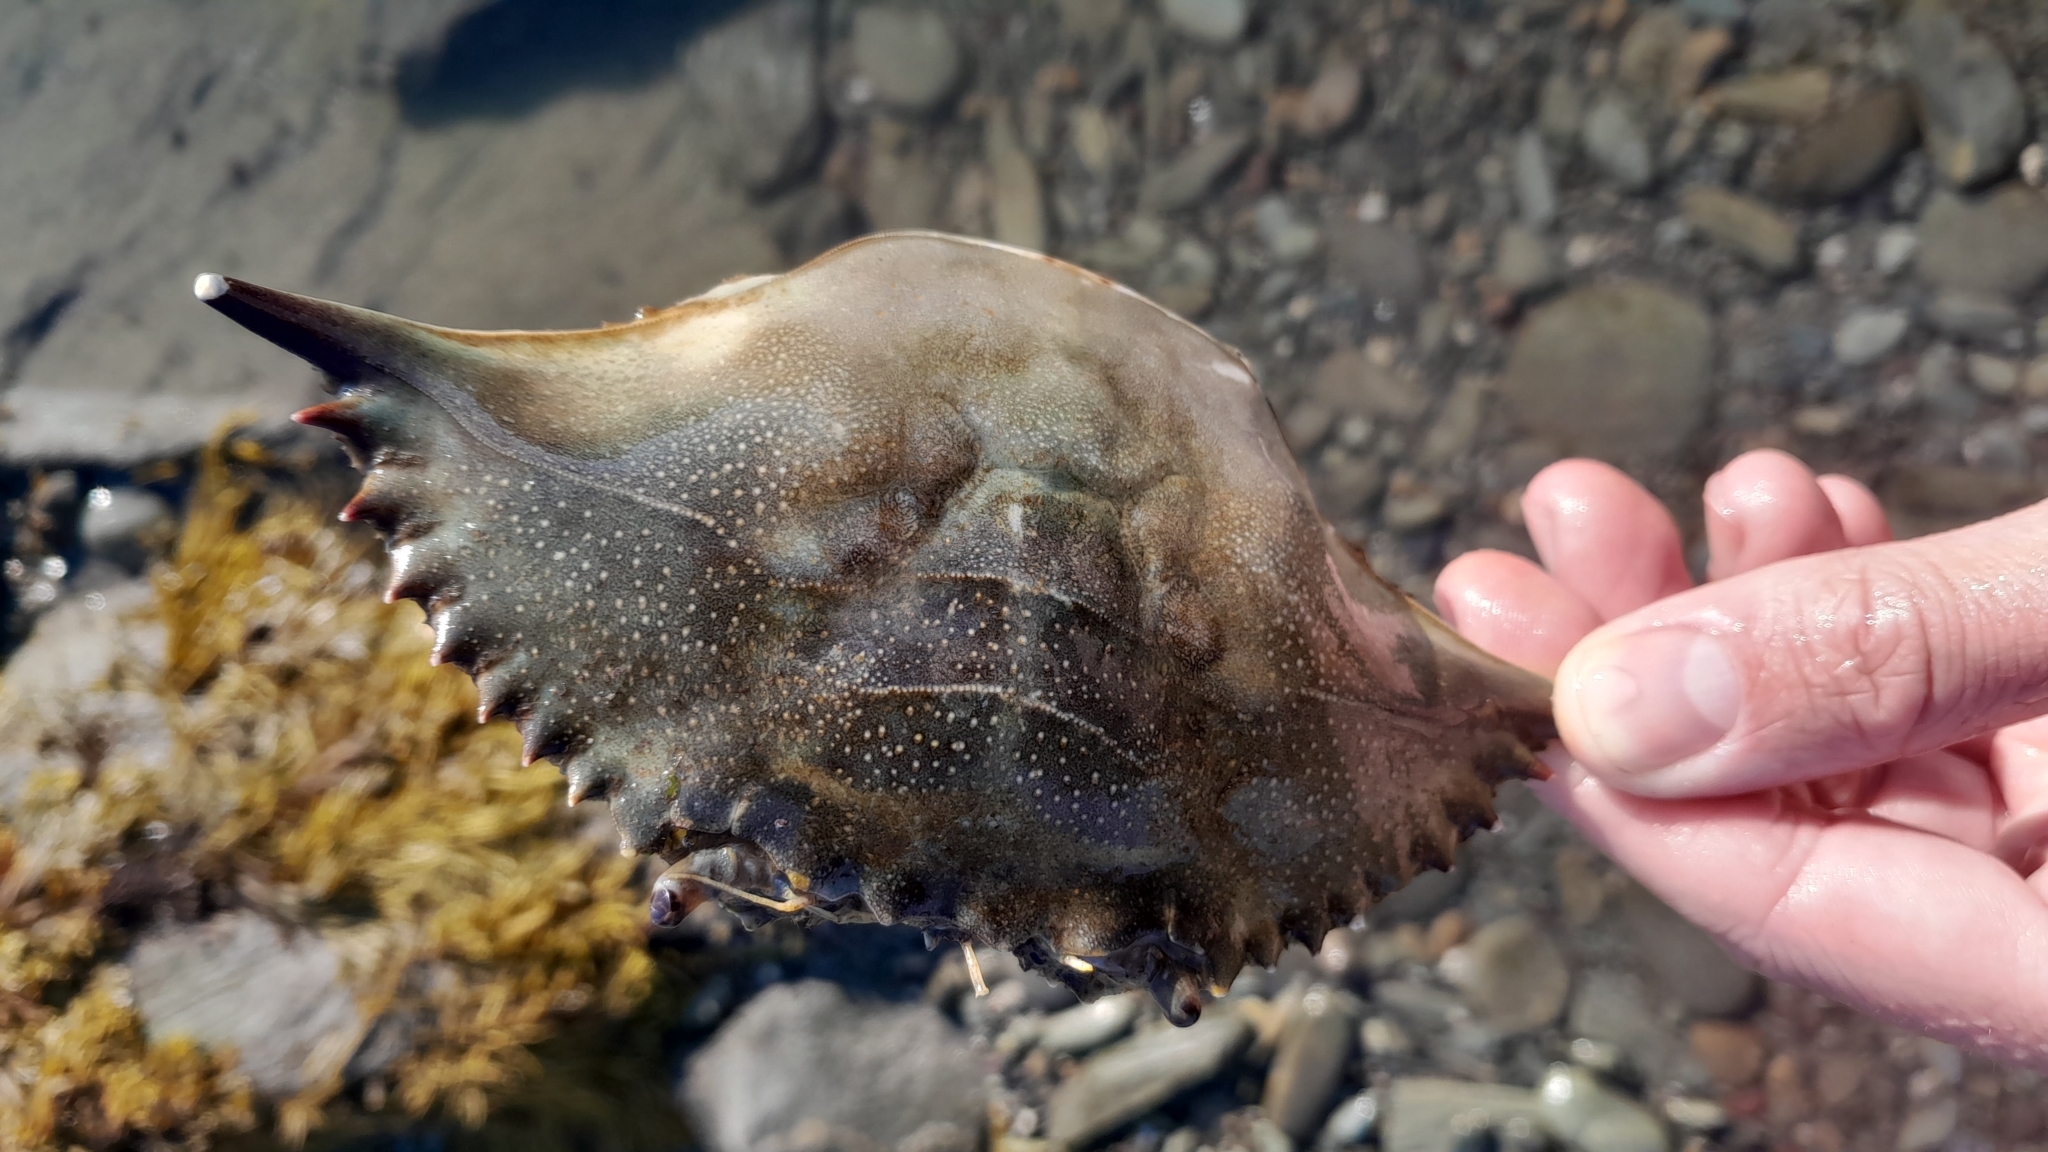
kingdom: Animalia
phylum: Arthropoda
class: Malacostraca
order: Decapoda
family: Portunidae
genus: Callinectes
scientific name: Callinectes sapidus
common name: Blue crab
